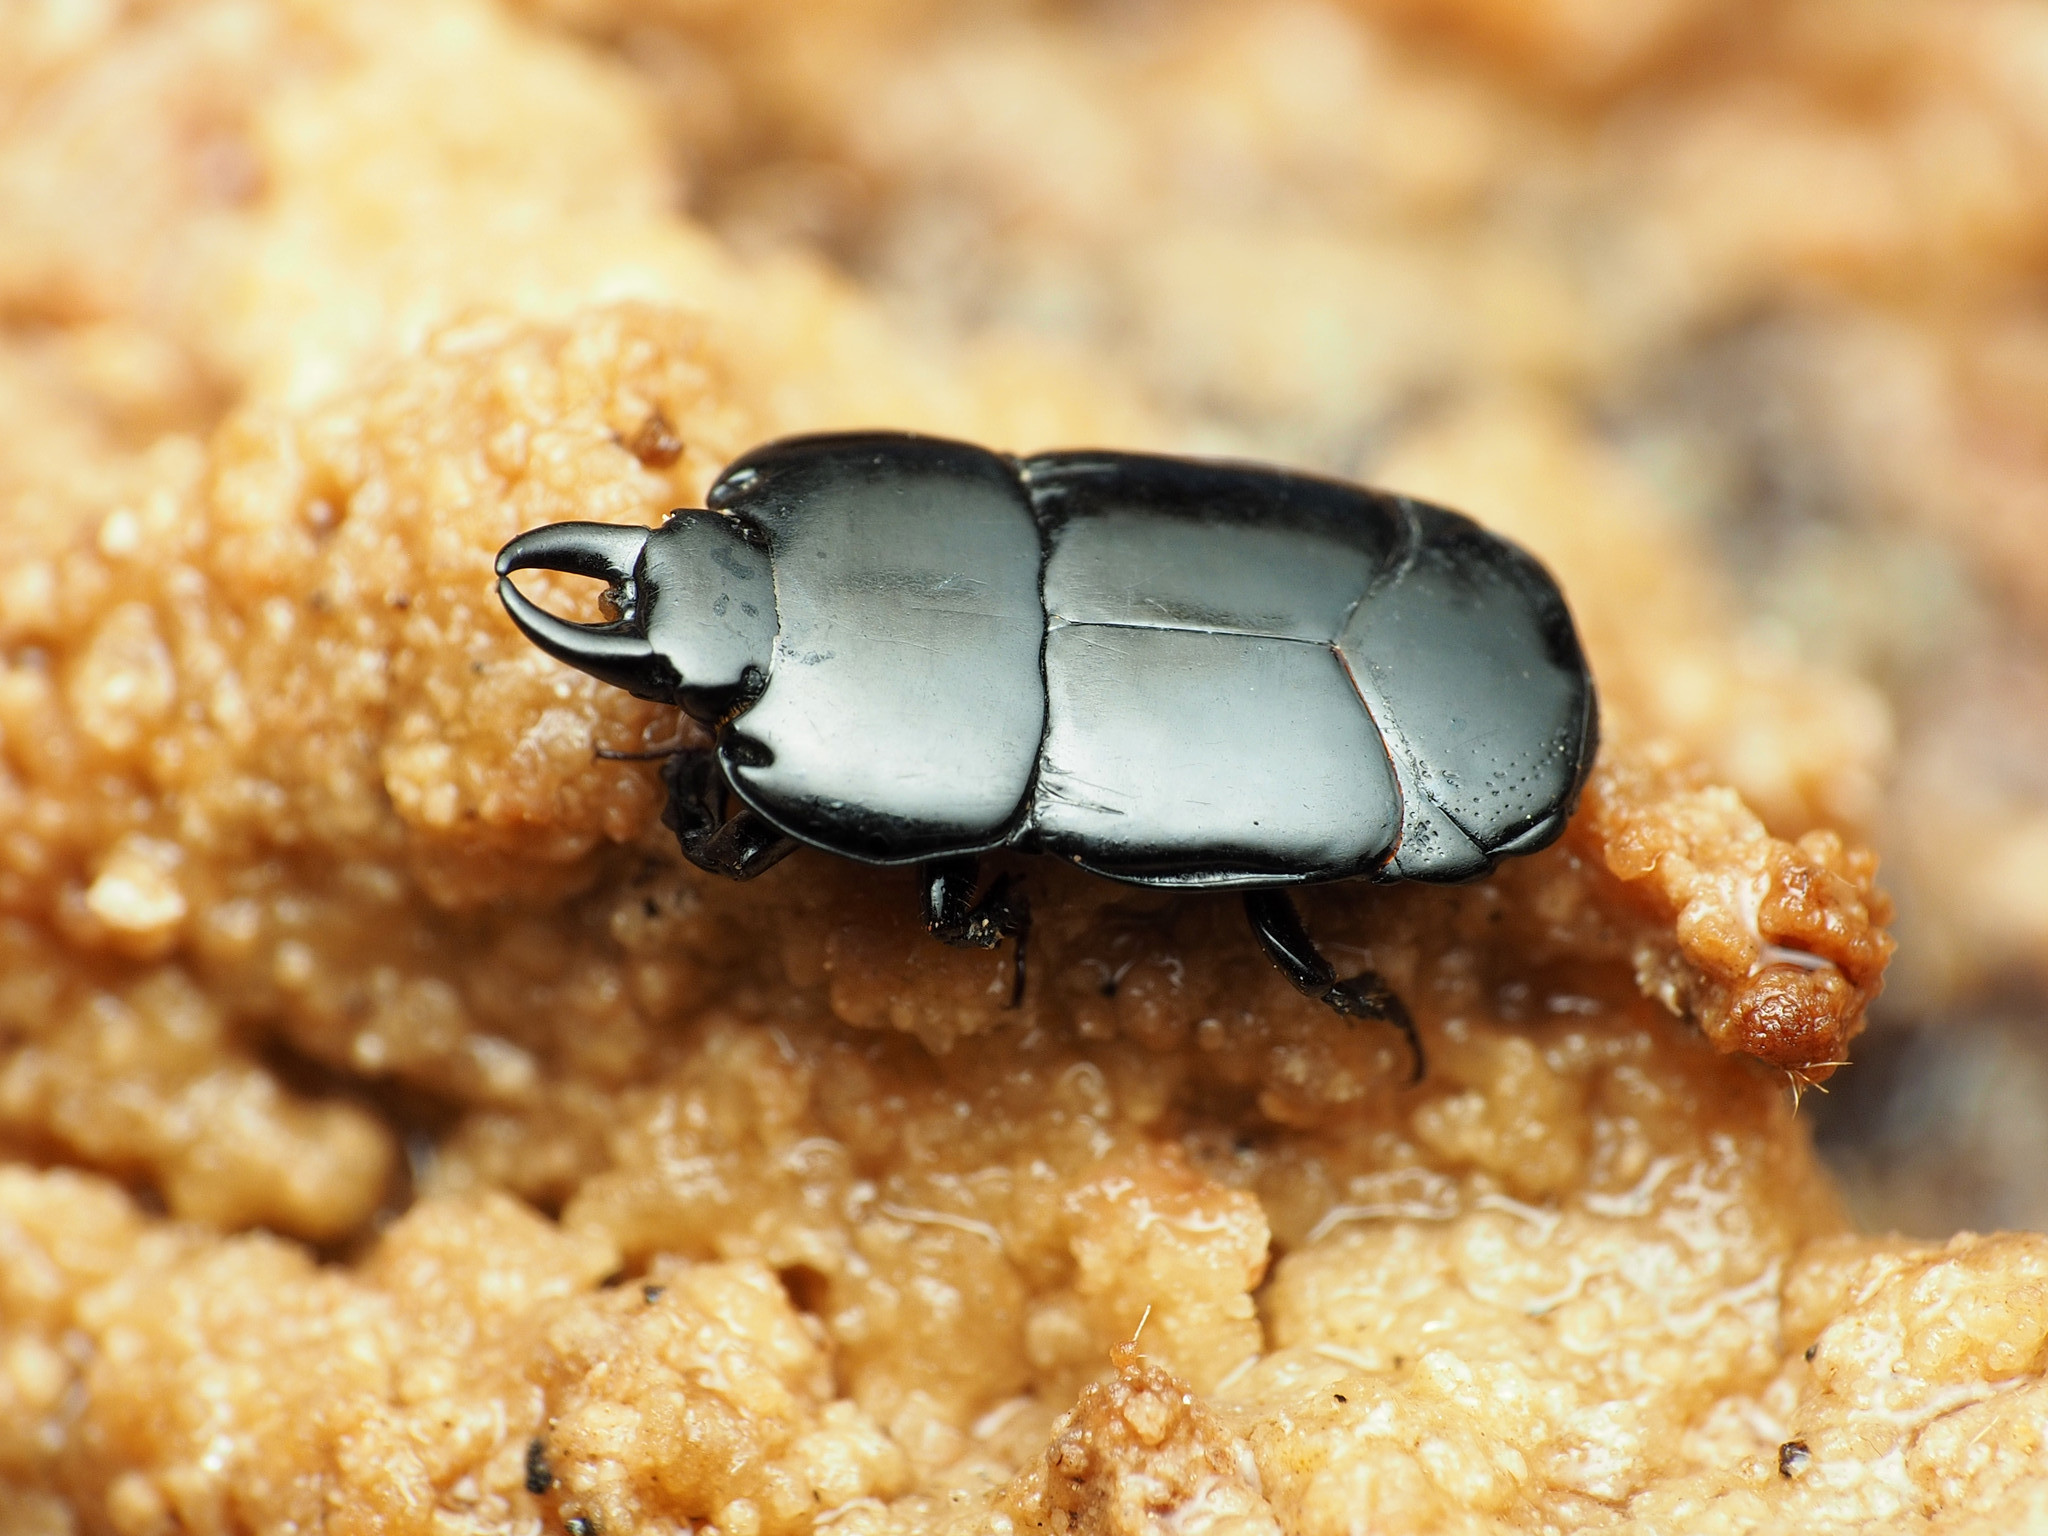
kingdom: Animalia
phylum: Arthropoda
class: Insecta
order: Coleoptera
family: Histeridae
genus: Hololepta
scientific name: Hololepta aequalis
